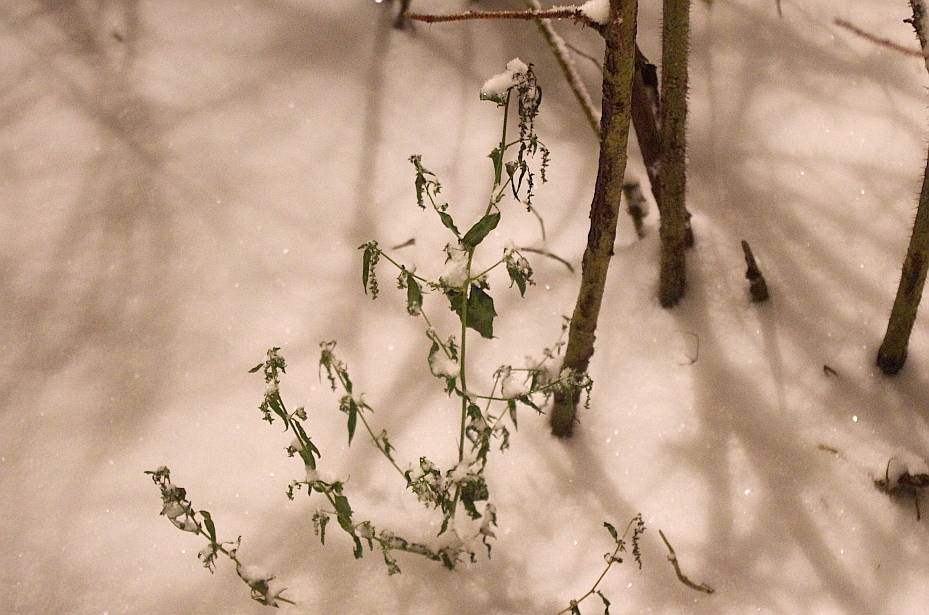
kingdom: Plantae
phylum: Tracheophyta
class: Magnoliopsida
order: Caryophyllales
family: Amaranthaceae
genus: Atriplex
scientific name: Atriplex patula
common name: Common orache
